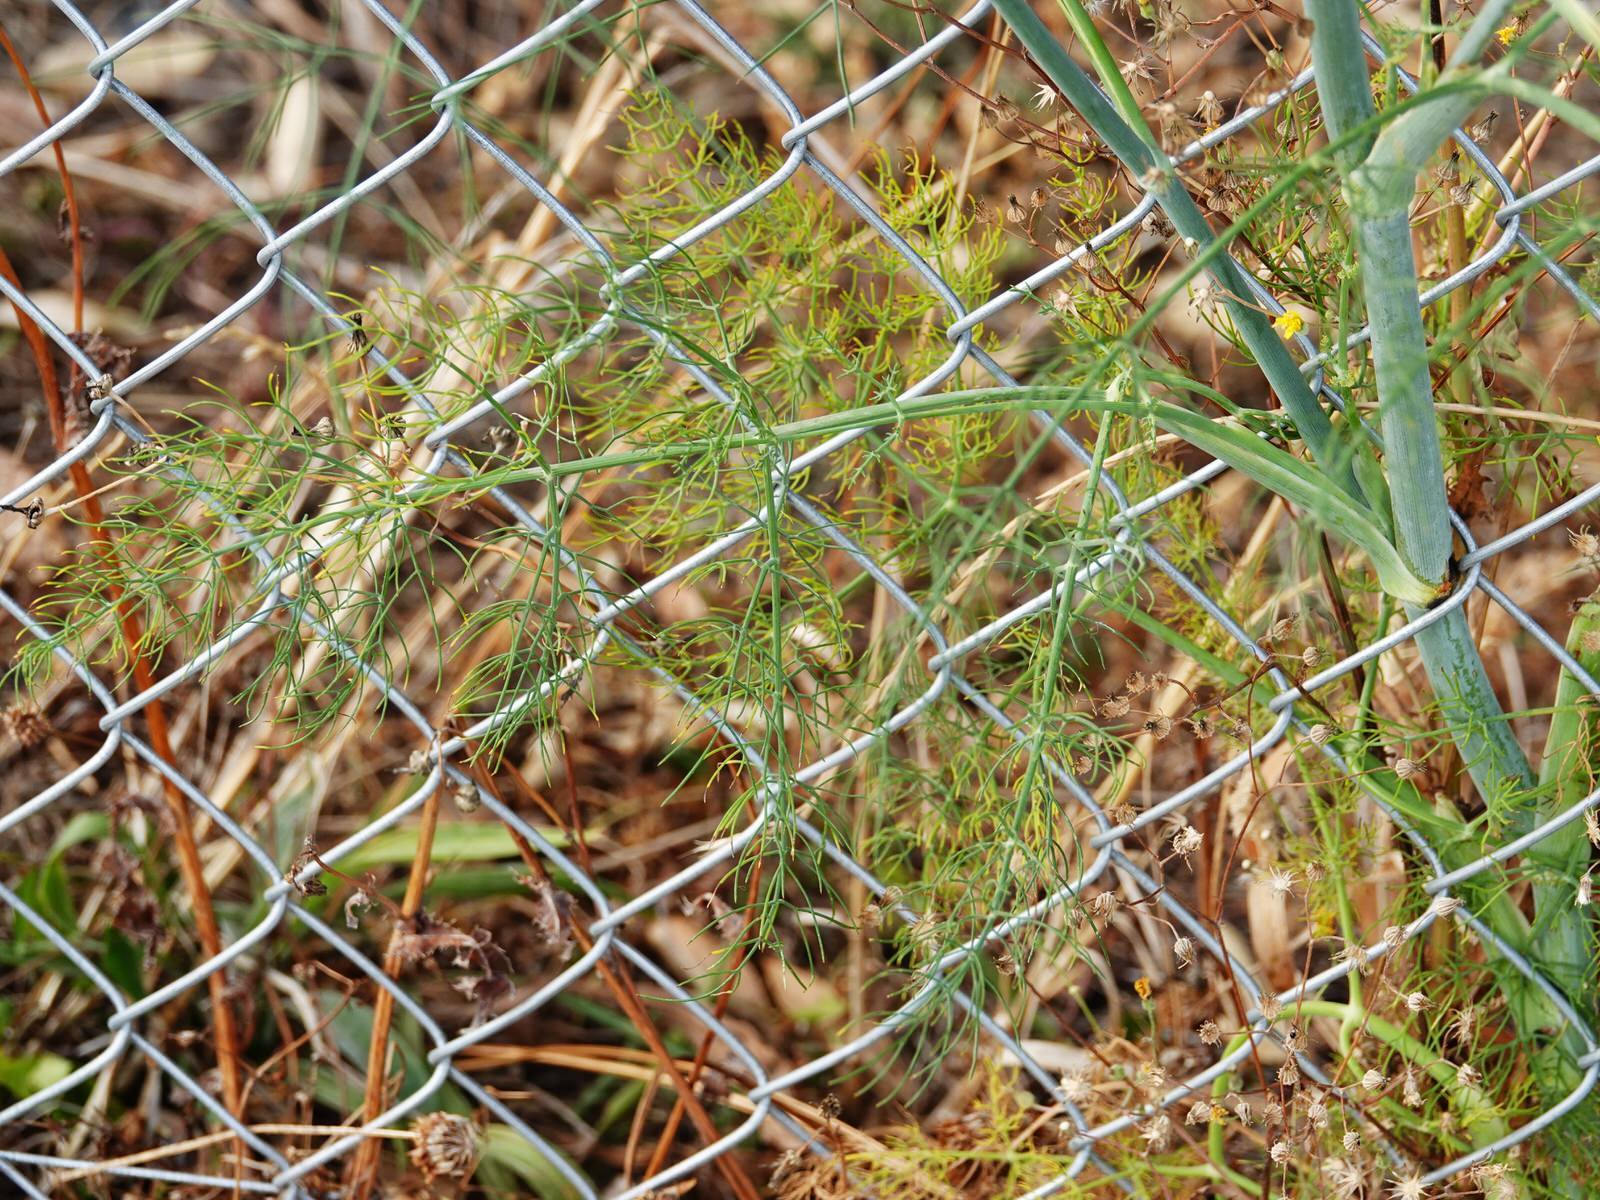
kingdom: Plantae
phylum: Tracheophyta
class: Magnoliopsida
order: Apiales
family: Apiaceae
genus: Foeniculum
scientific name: Foeniculum vulgare
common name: Fennel
